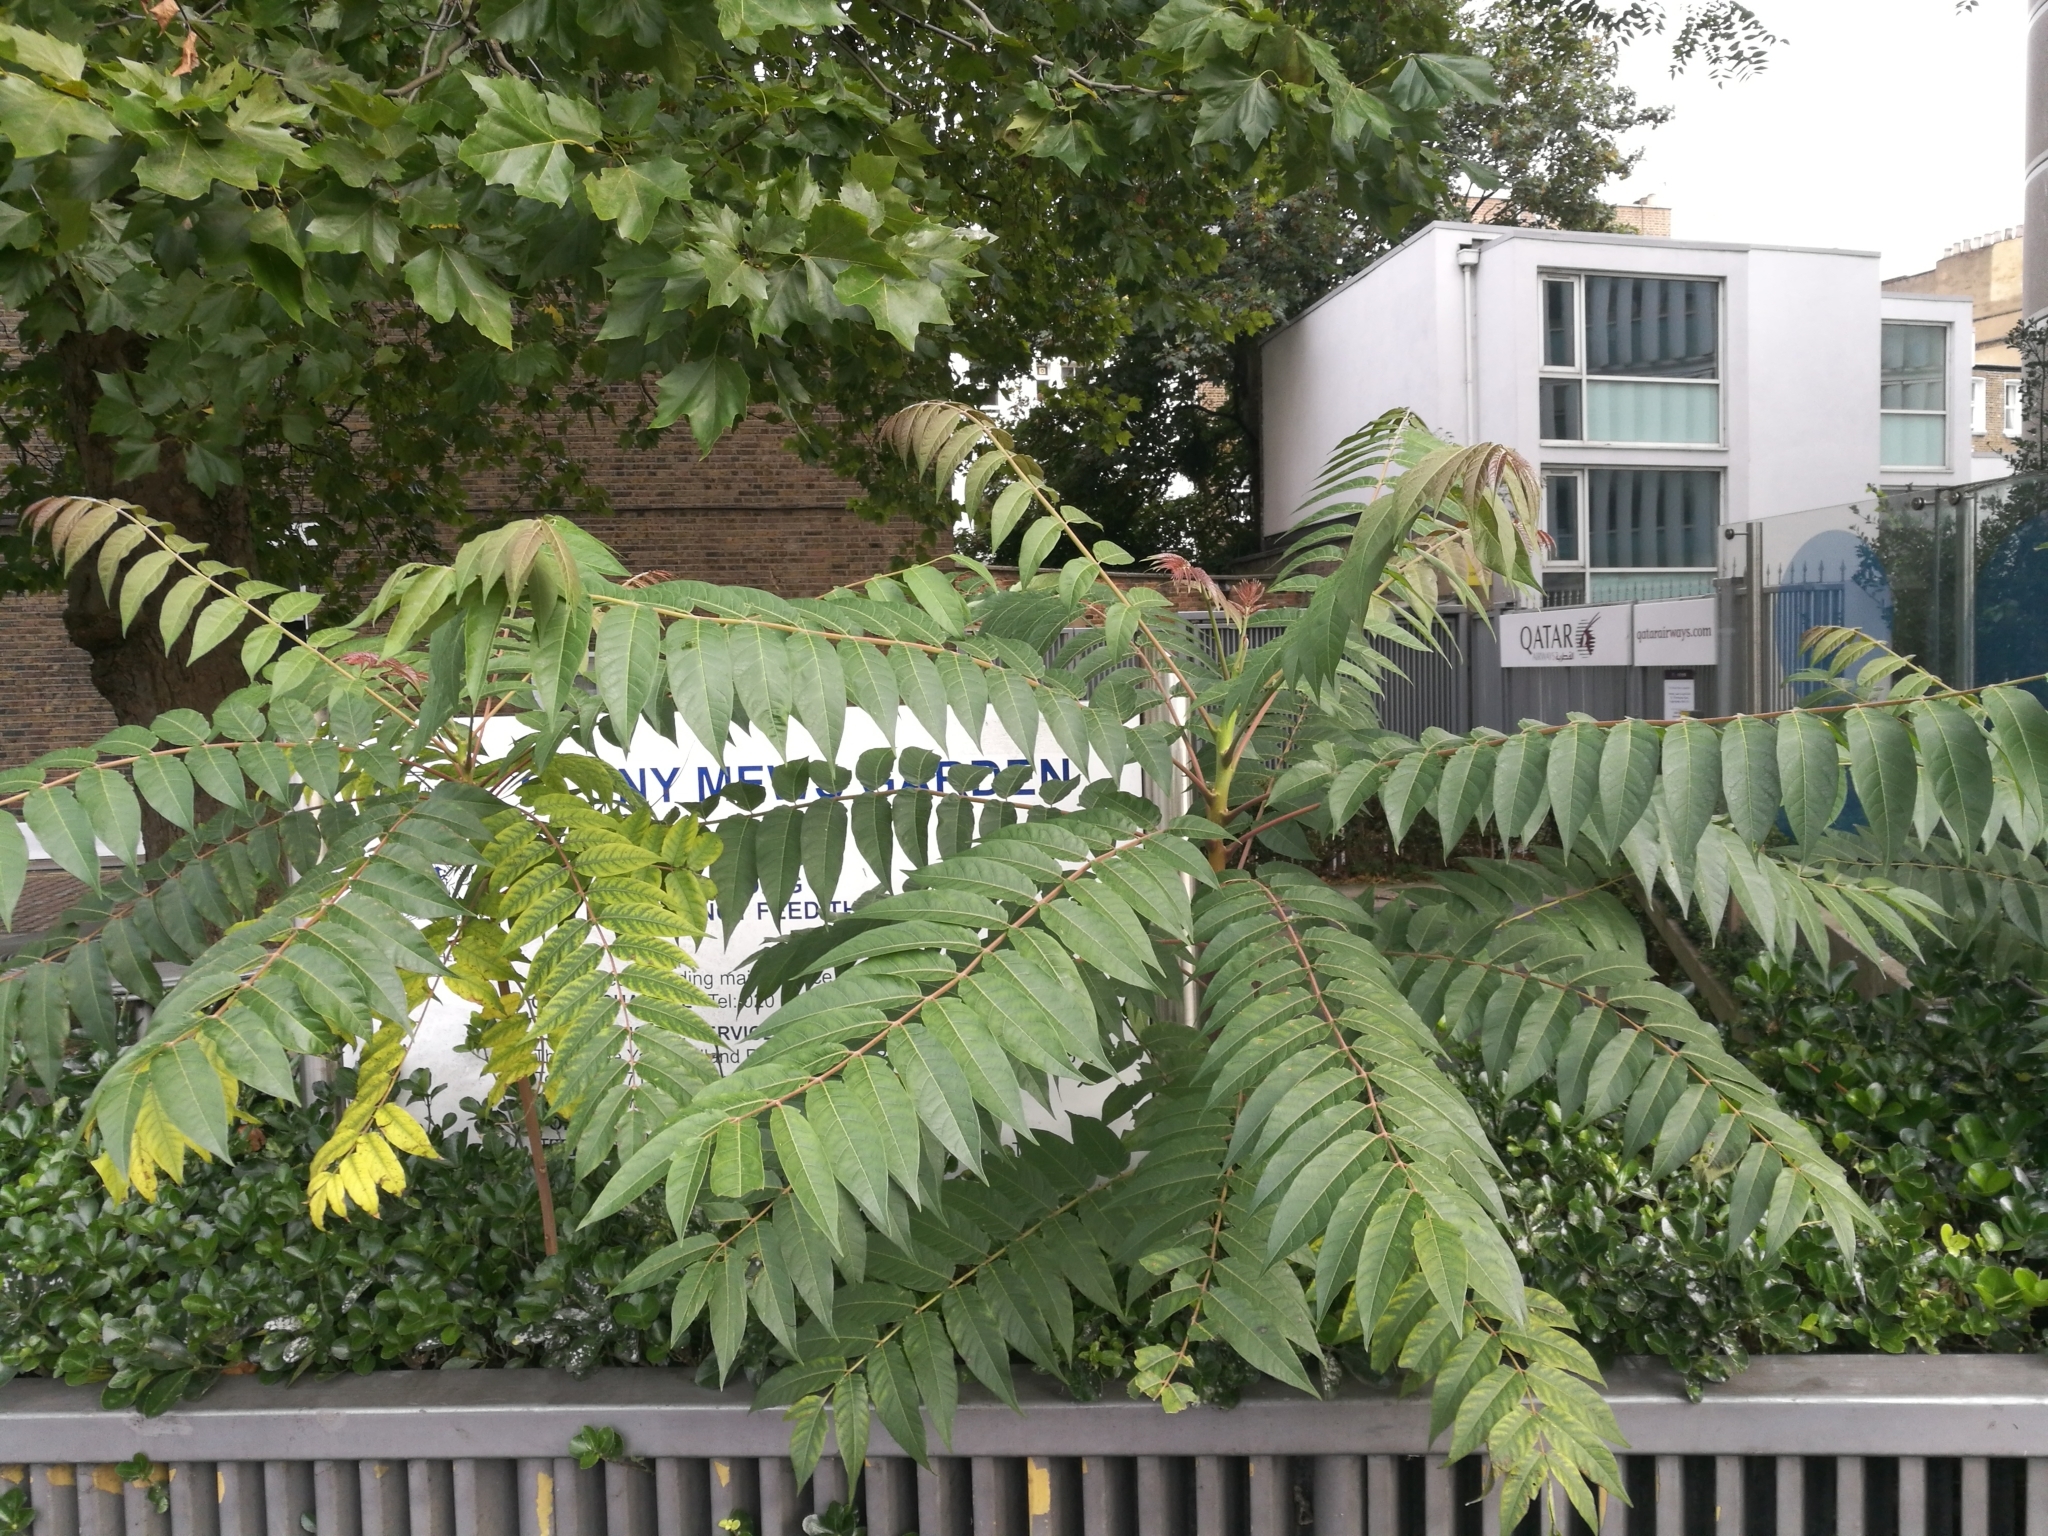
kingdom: Plantae
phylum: Tracheophyta
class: Magnoliopsida
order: Sapindales
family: Simaroubaceae
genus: Ailanthus
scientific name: Ailanthus altissima
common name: Tree-of-heaven
